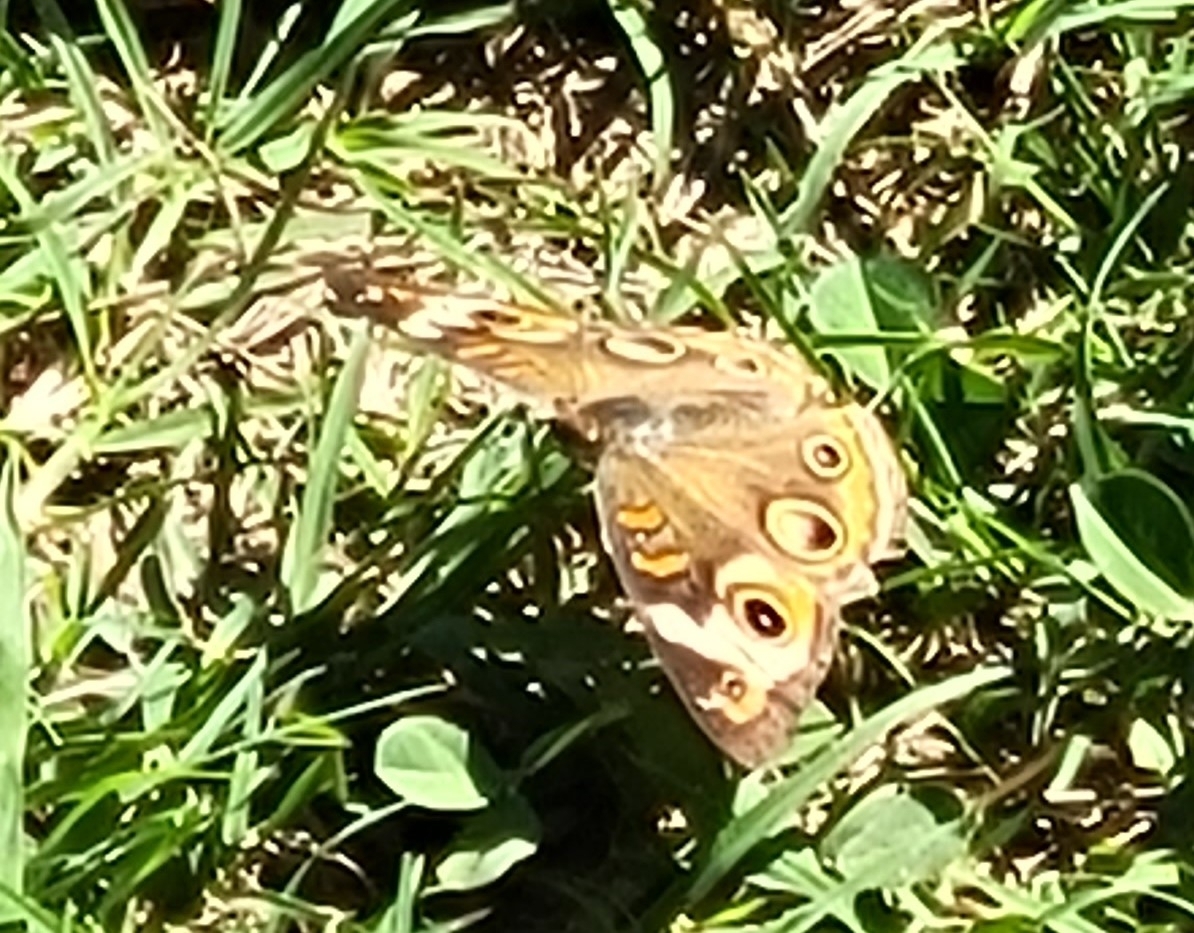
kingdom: Animalia
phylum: Arthropoda
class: Insecta
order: Lepidoptera
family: Nymphalidae
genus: Junonia
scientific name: Junonia coenia
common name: Common buckeye
